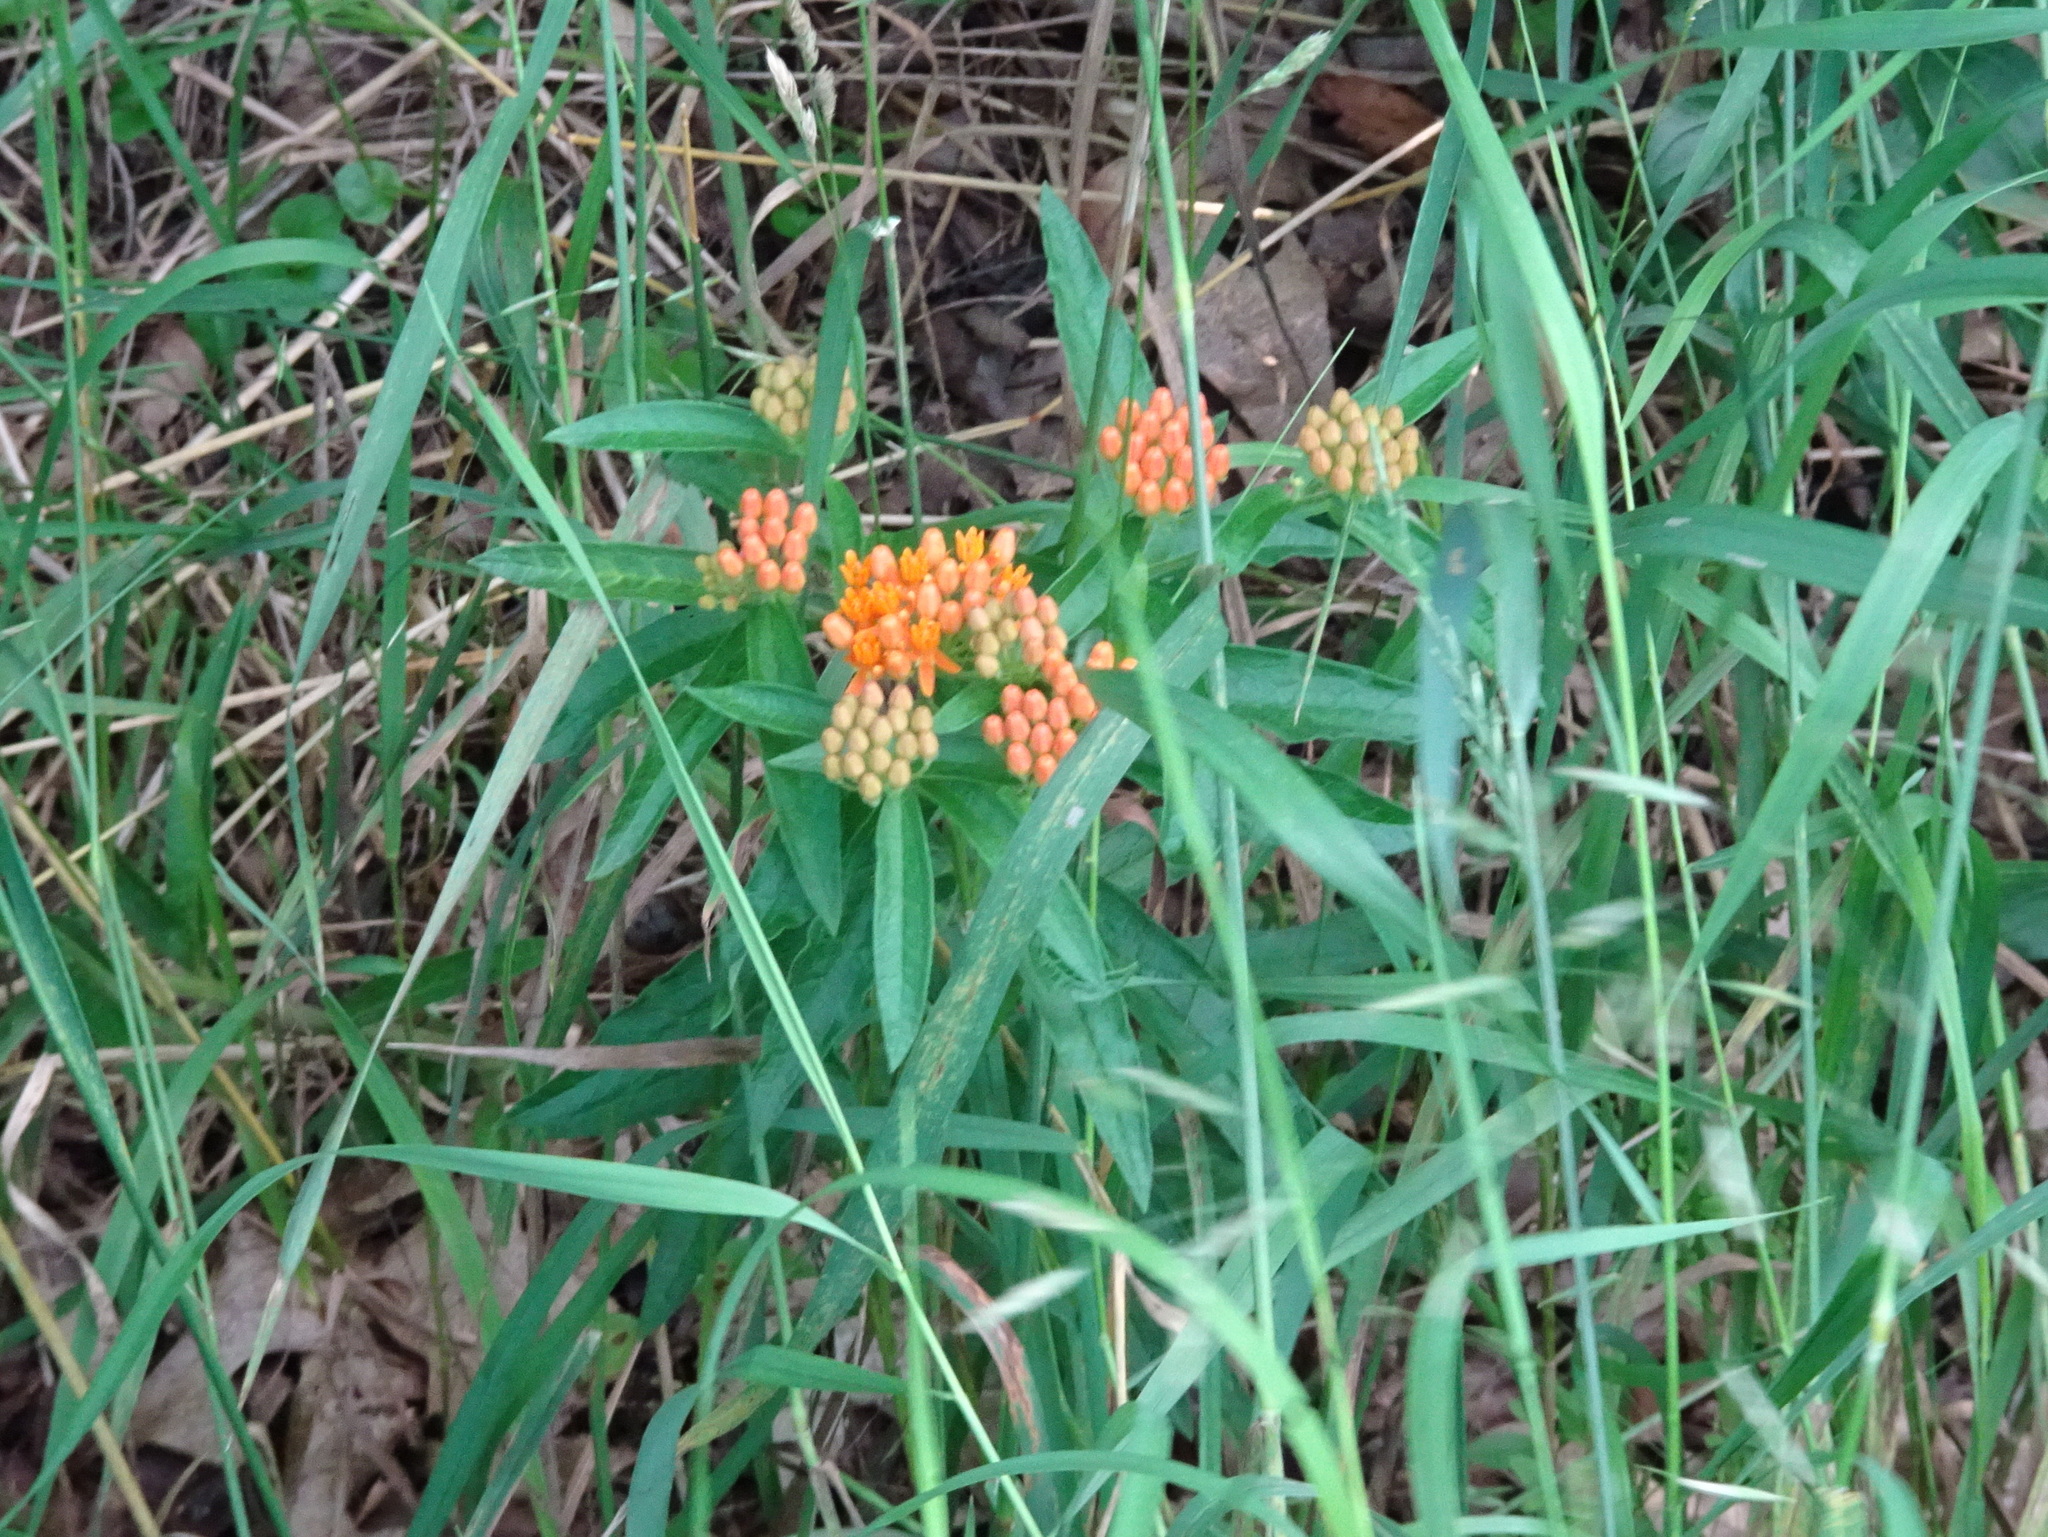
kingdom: Plantae
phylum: Tracheophyta
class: Magnoliopsida
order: Gentianales
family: Apocynaceae
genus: Asclepias
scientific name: Asclepias tuberosa
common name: Butterfly milkweed
